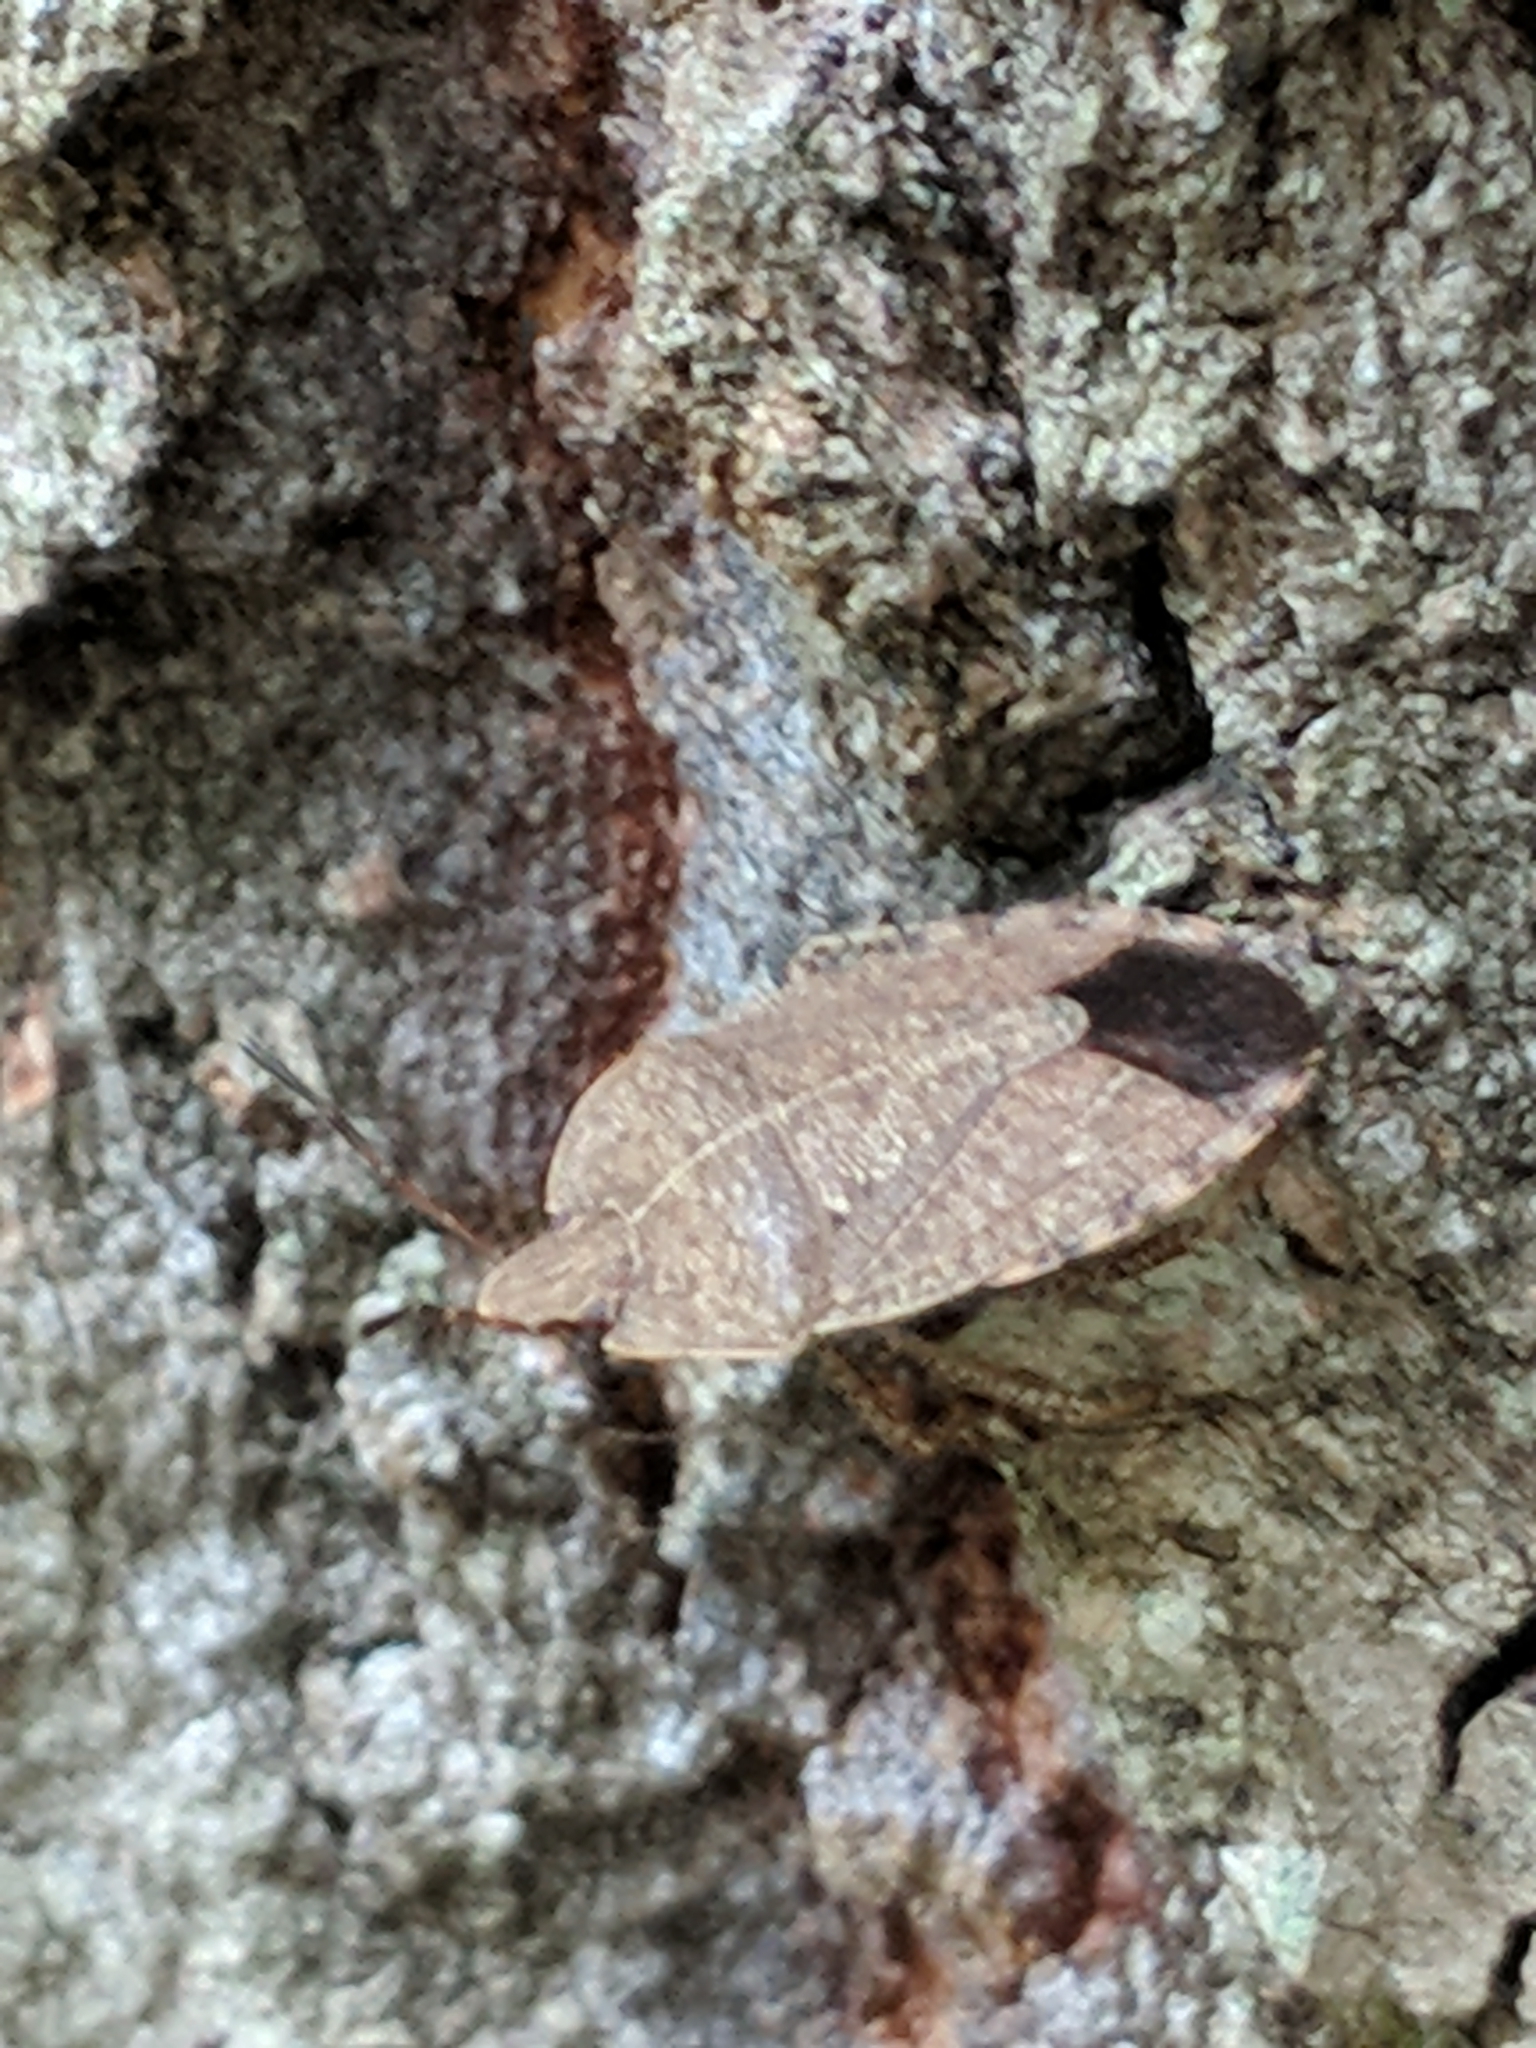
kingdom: Animalia
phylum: Arthropoda
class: Insecta
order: Hemiptera
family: Pentatomidae
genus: Menecles
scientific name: Menecles insertus
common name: Elf shoe stink bug
